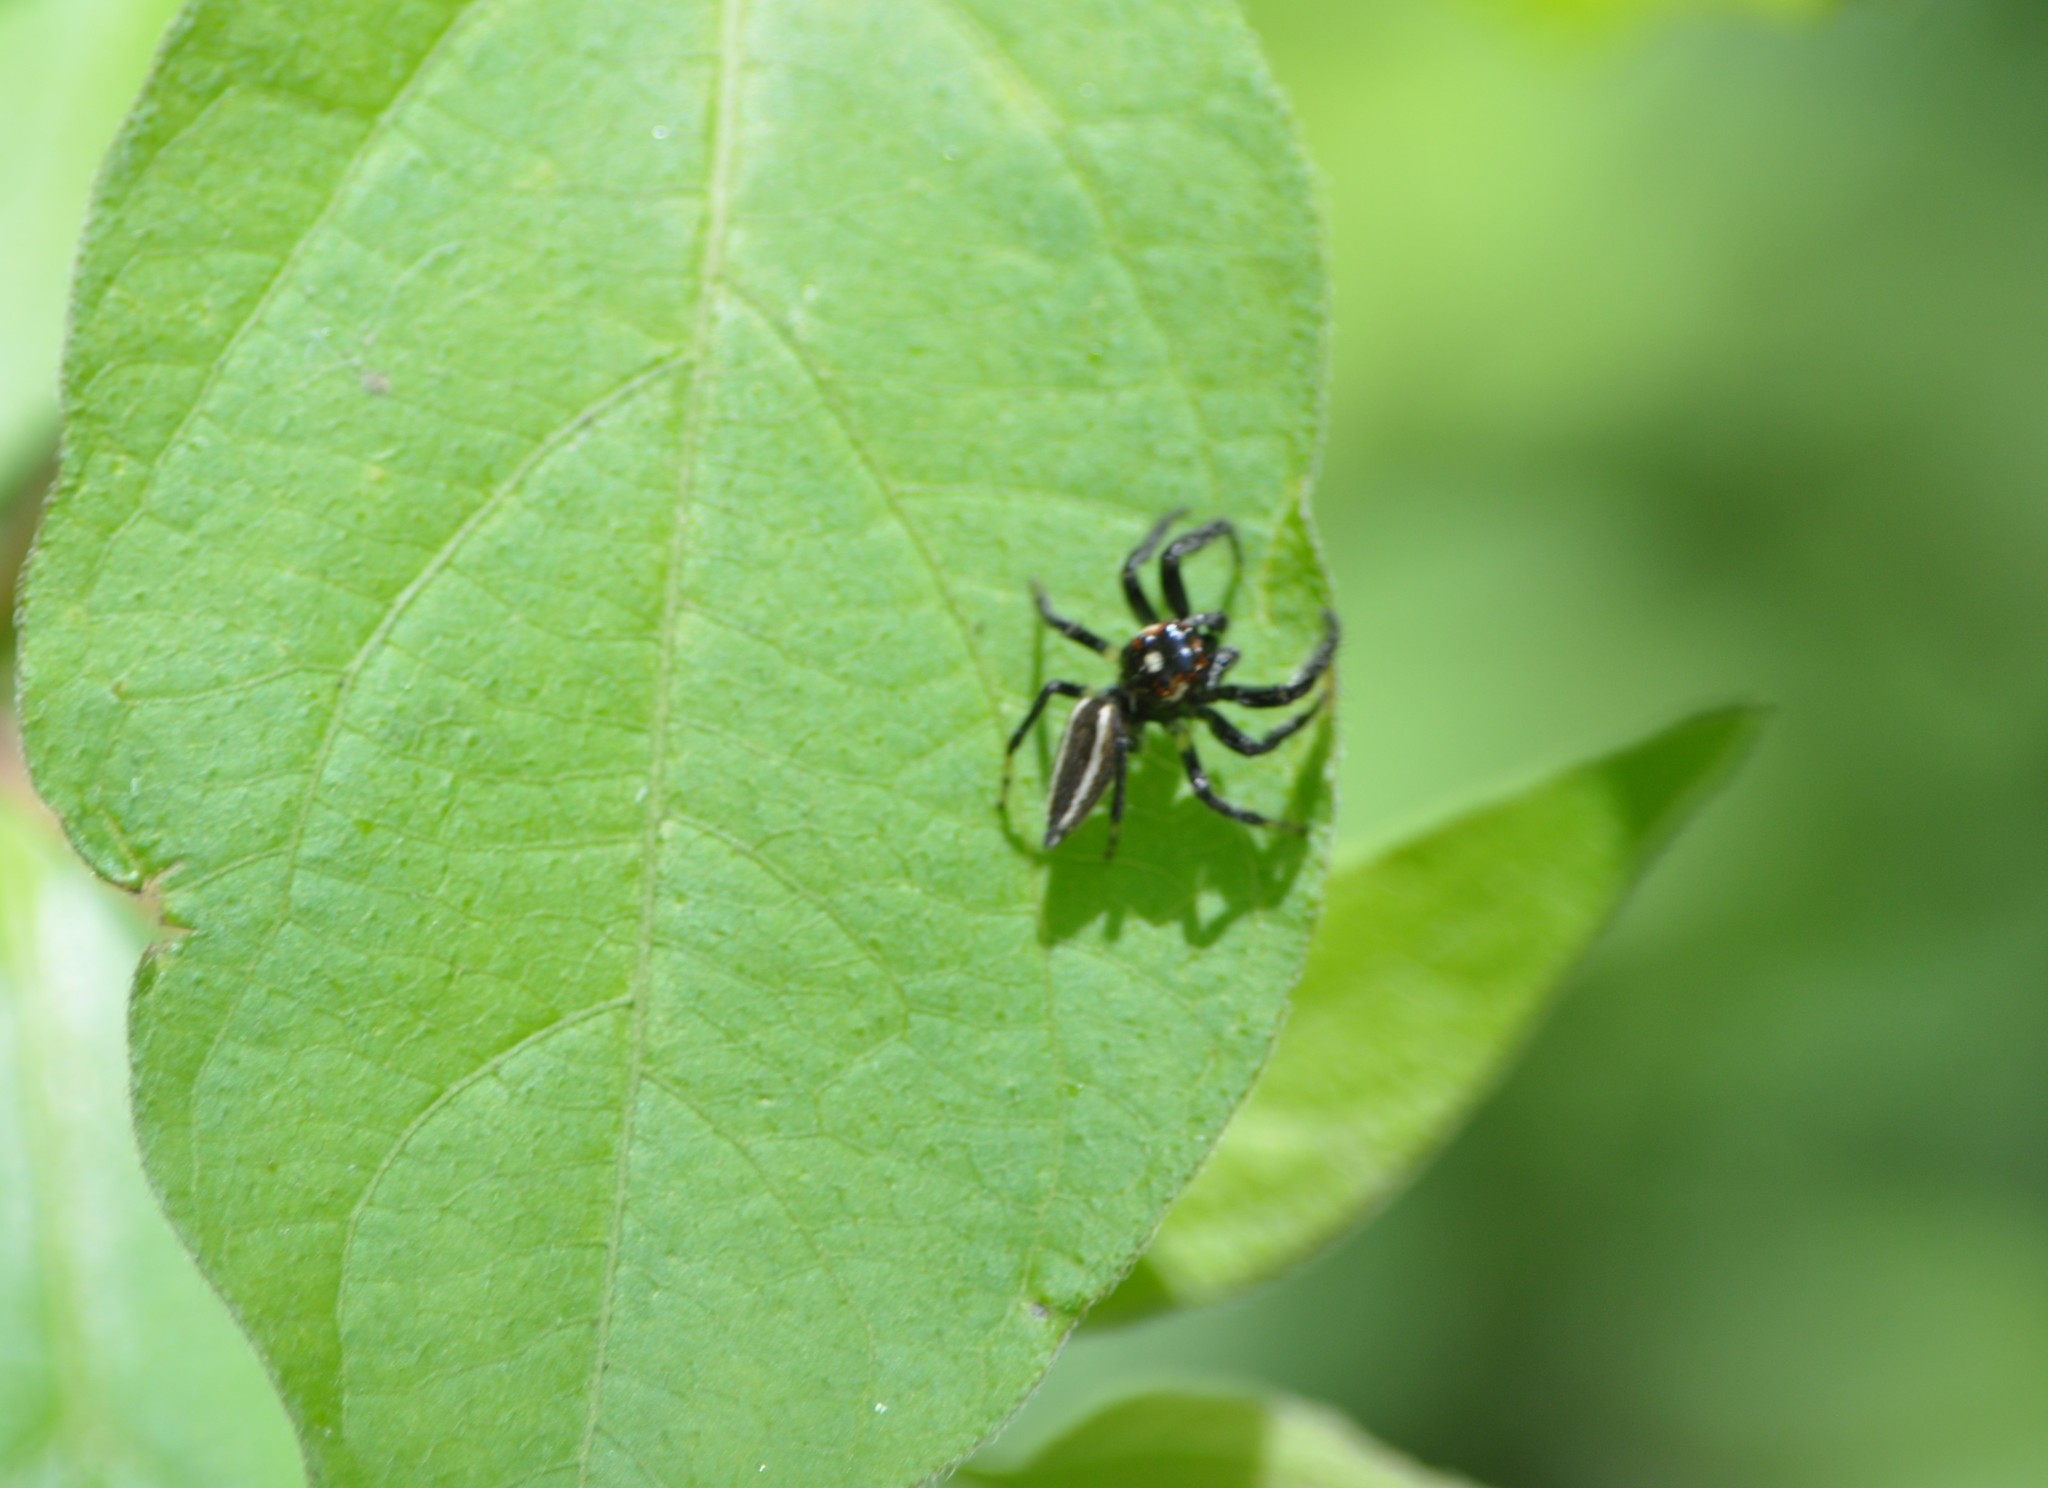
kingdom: Animalia
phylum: Arthropoda
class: Arachnida
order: Araneae
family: Salticidae
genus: Colonus
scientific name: Colonus sylvanus
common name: Jumping spiders
